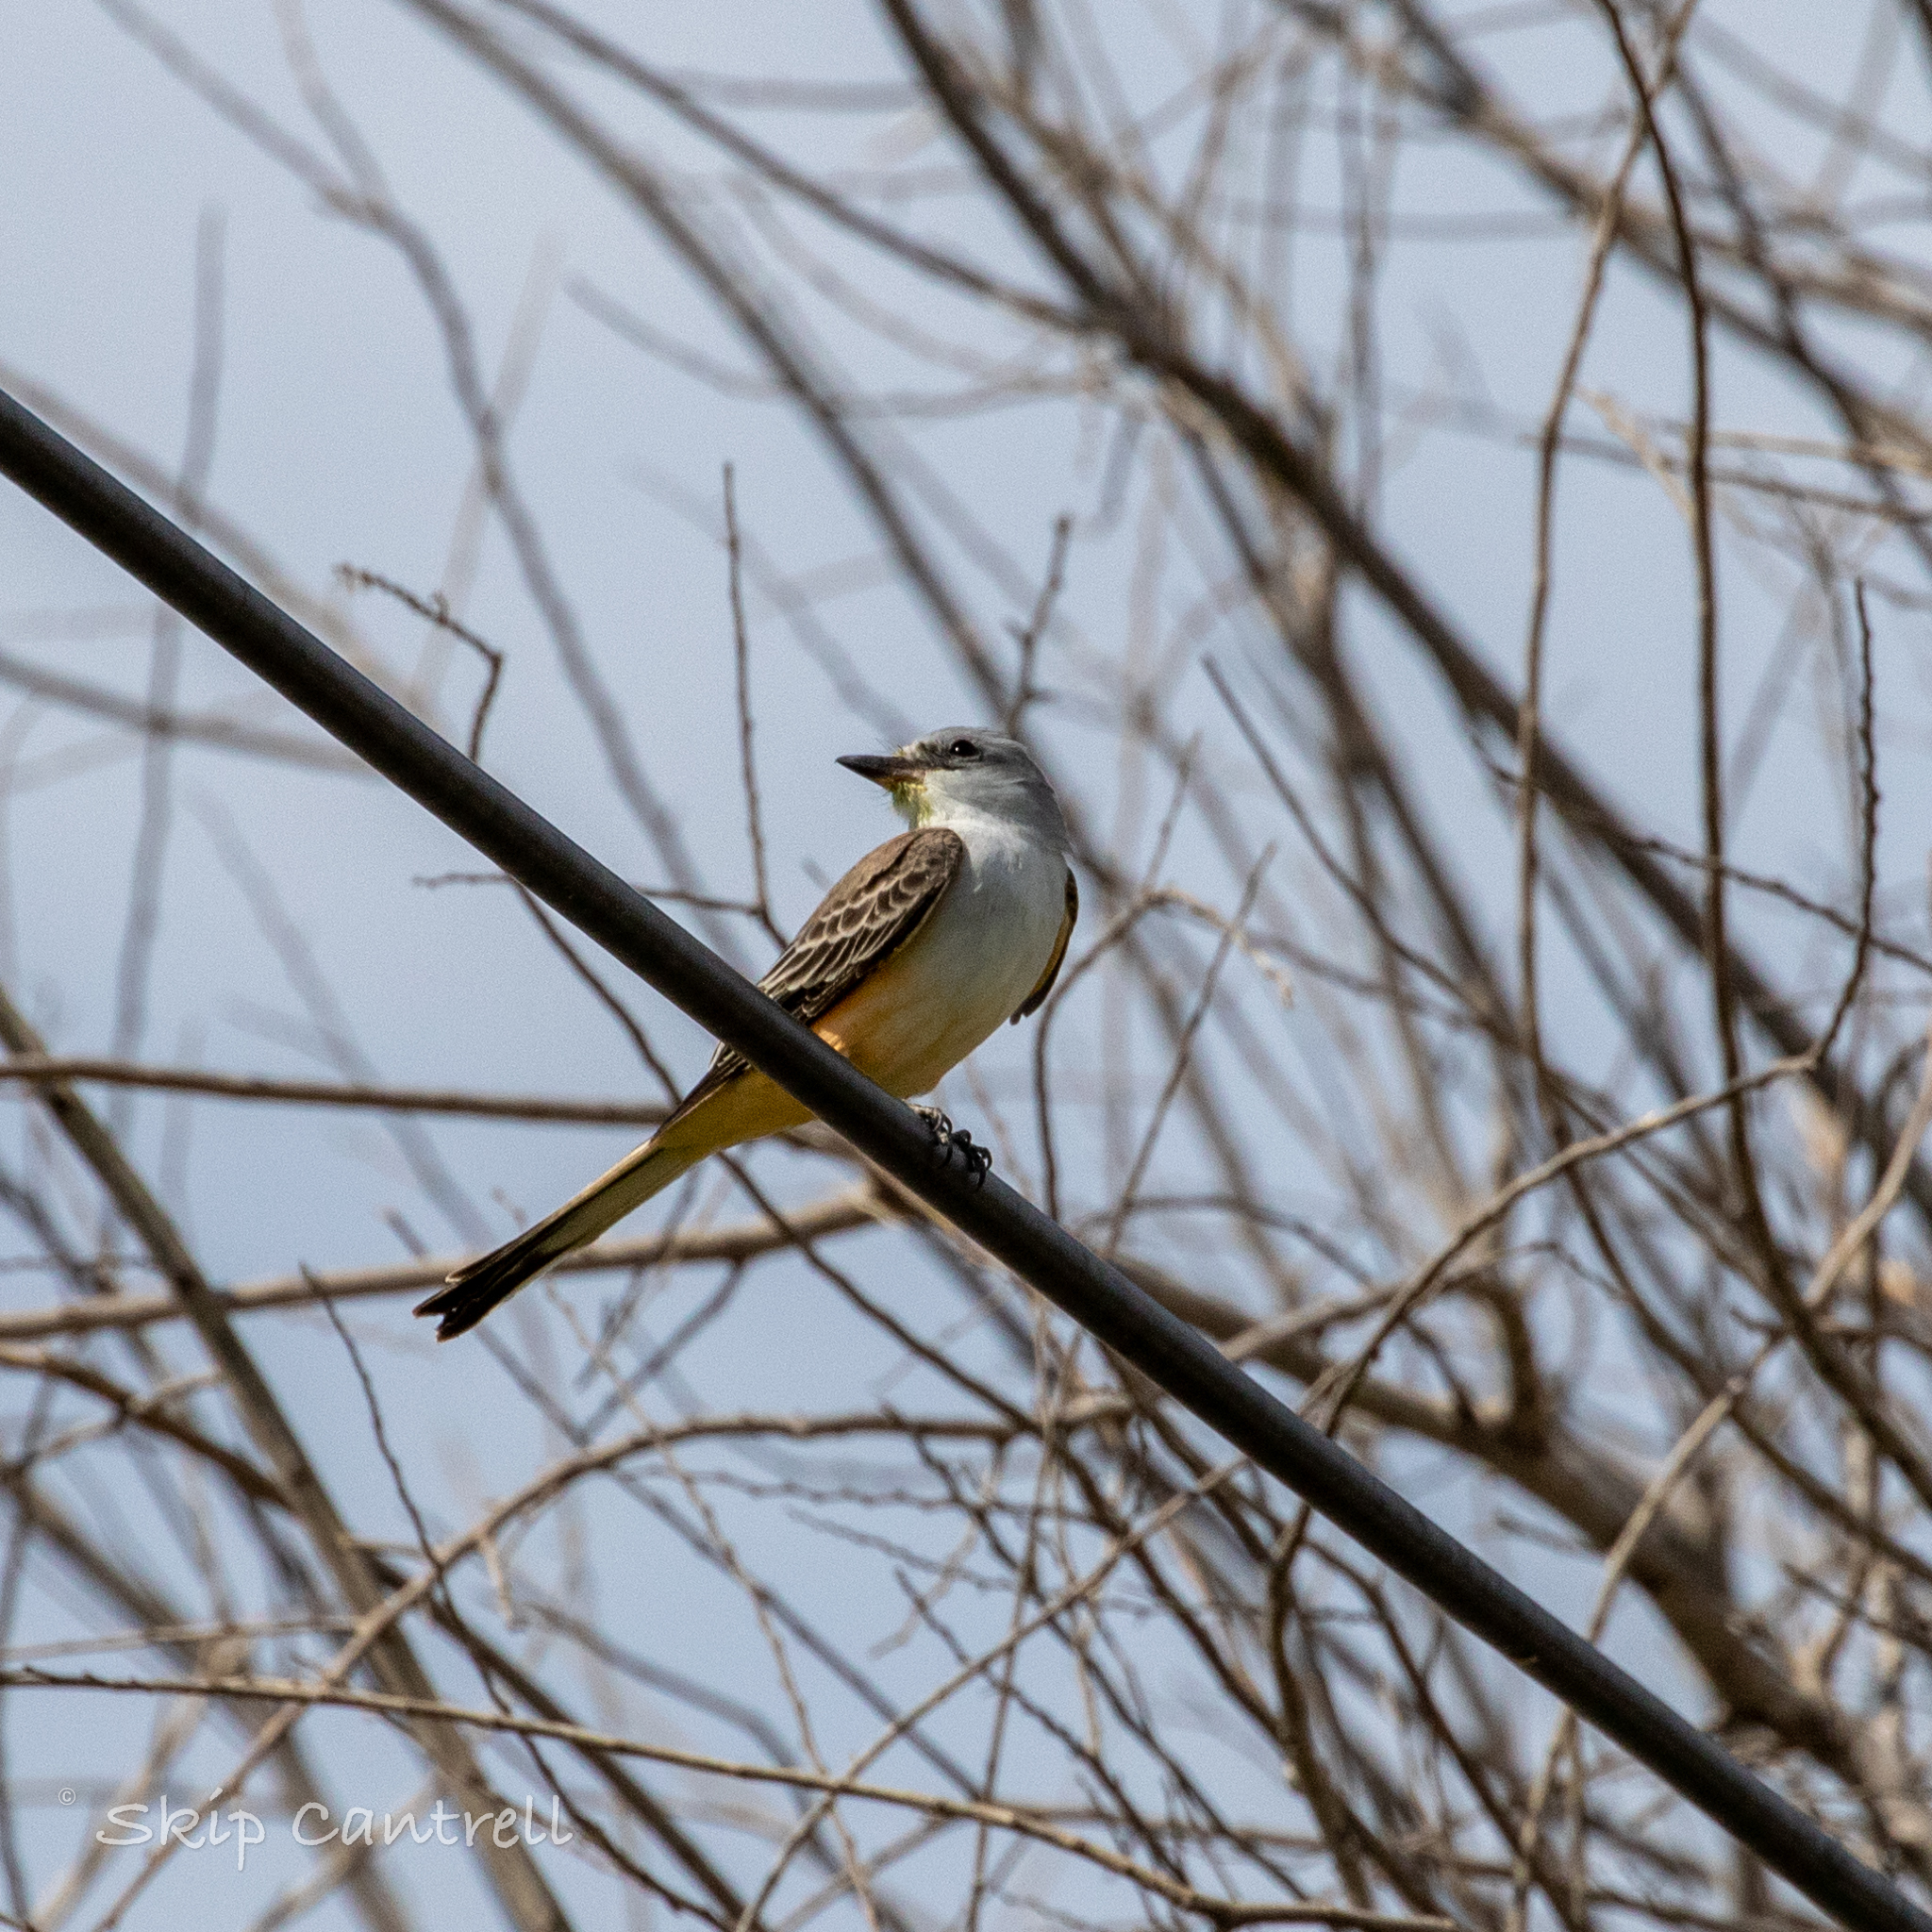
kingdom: Animalia
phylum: Chordata
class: Aves
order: Passeriformes
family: Tyrannidae
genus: Tyrannus
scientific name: Tyrannus forficatus
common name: Scissor-tailed flycatcher
